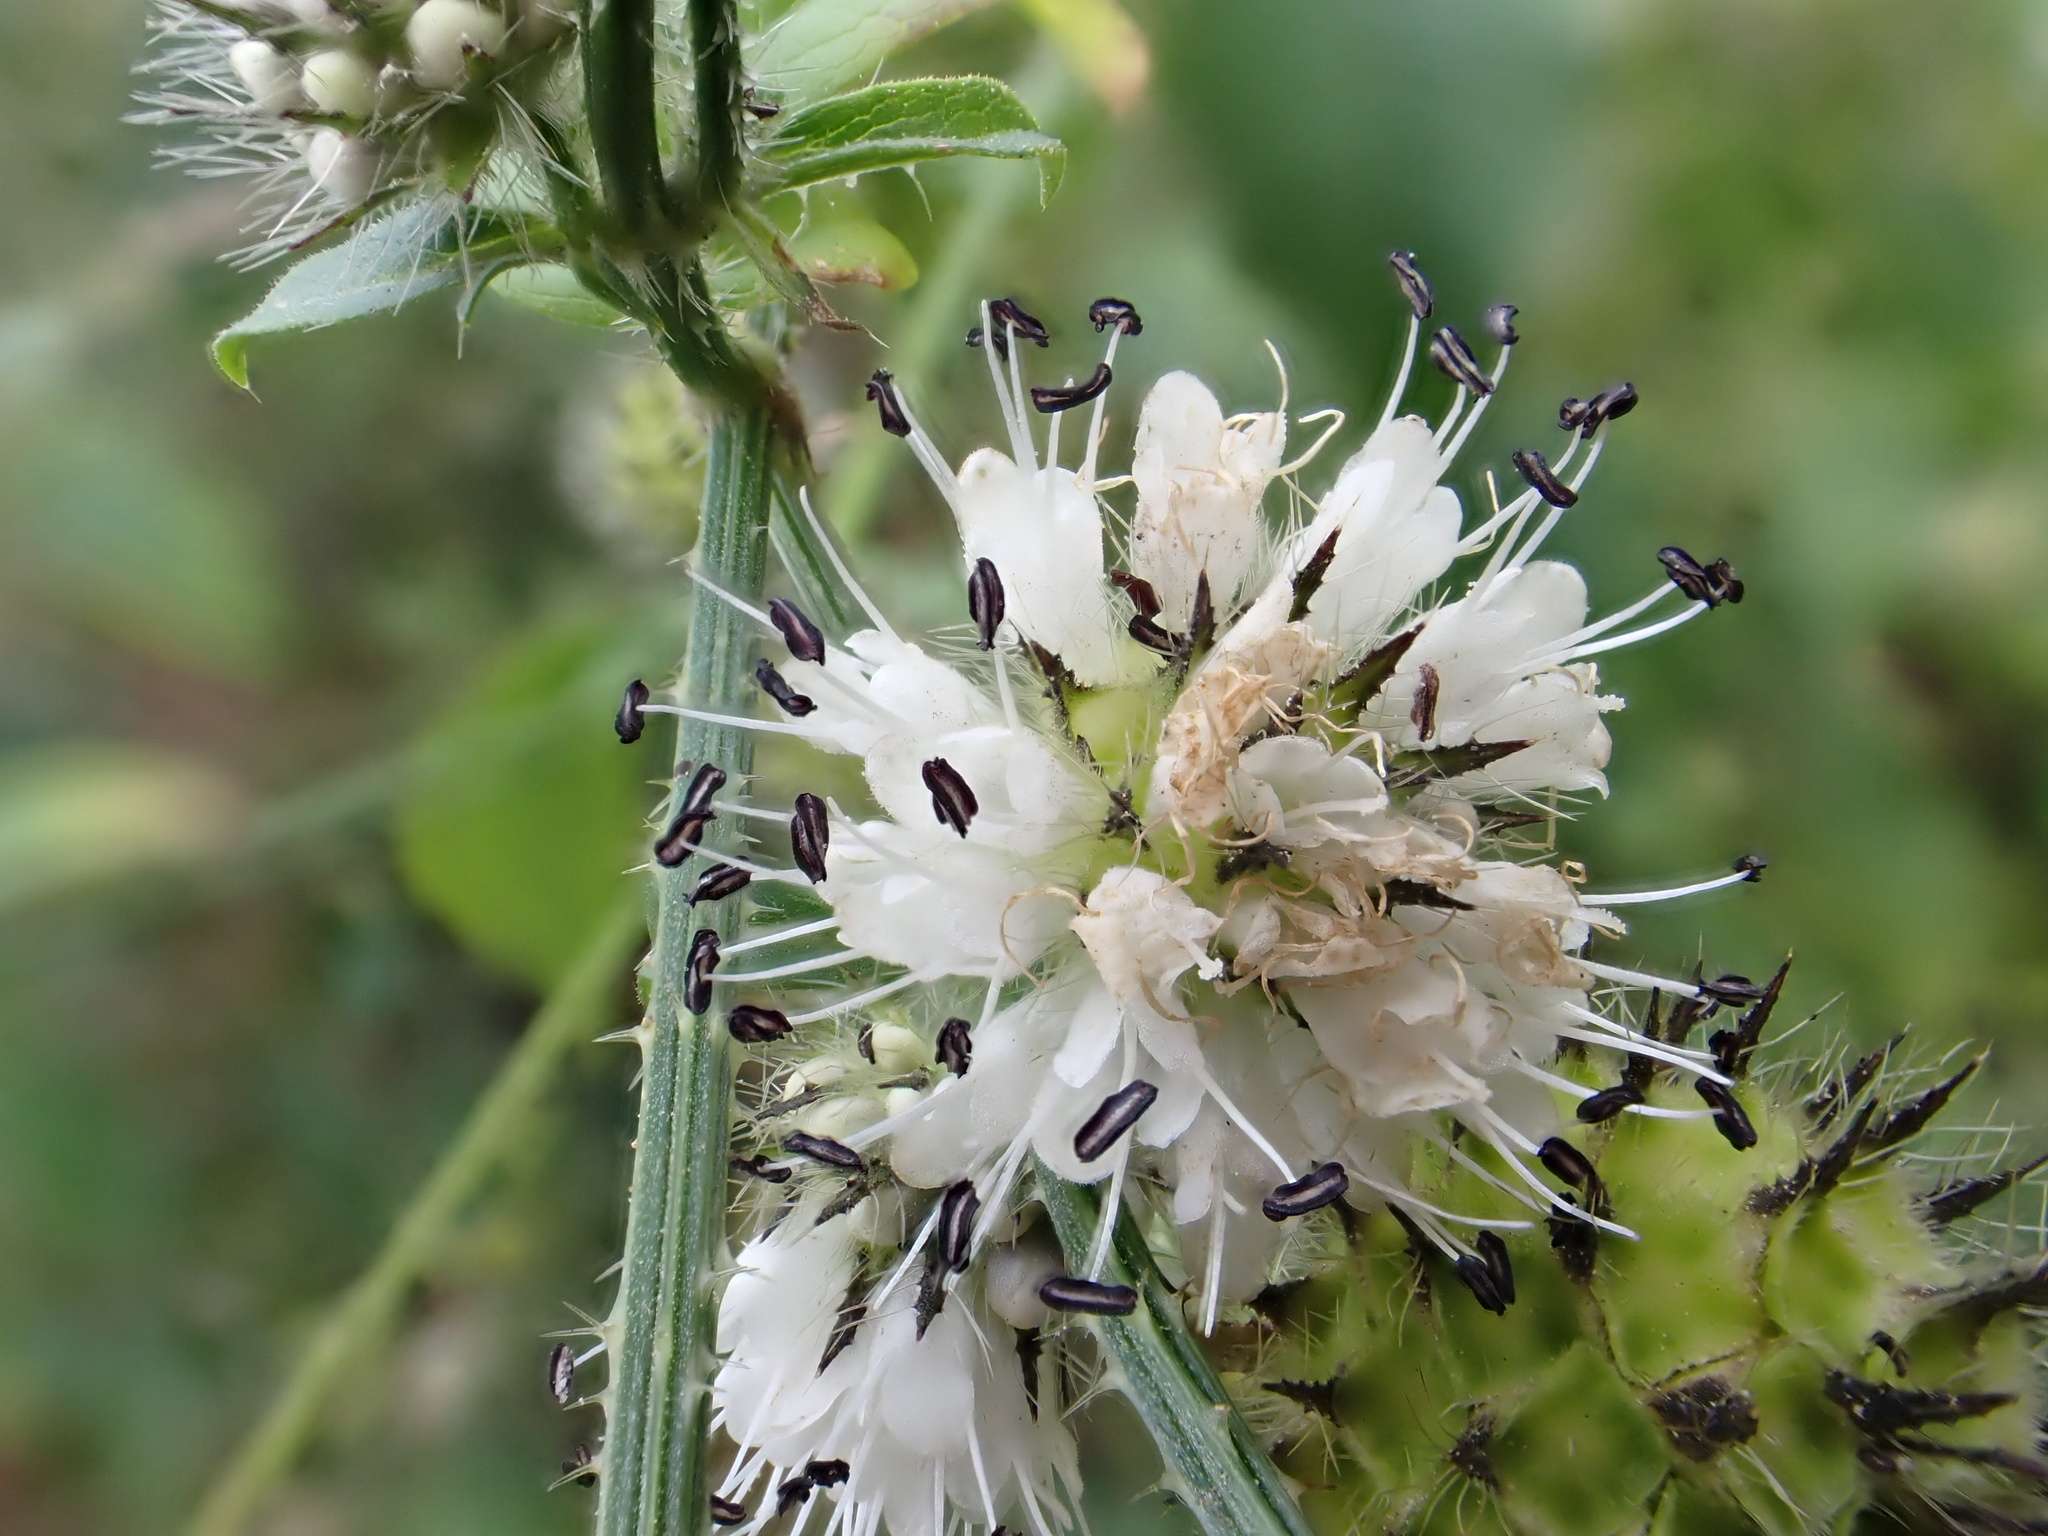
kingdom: Plantae
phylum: Tracheophyta
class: Magnoliopsida
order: Dipsacales
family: Caprifoliaceae
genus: Dipsacus
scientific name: Dipsacus pilosus
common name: Small teasel
